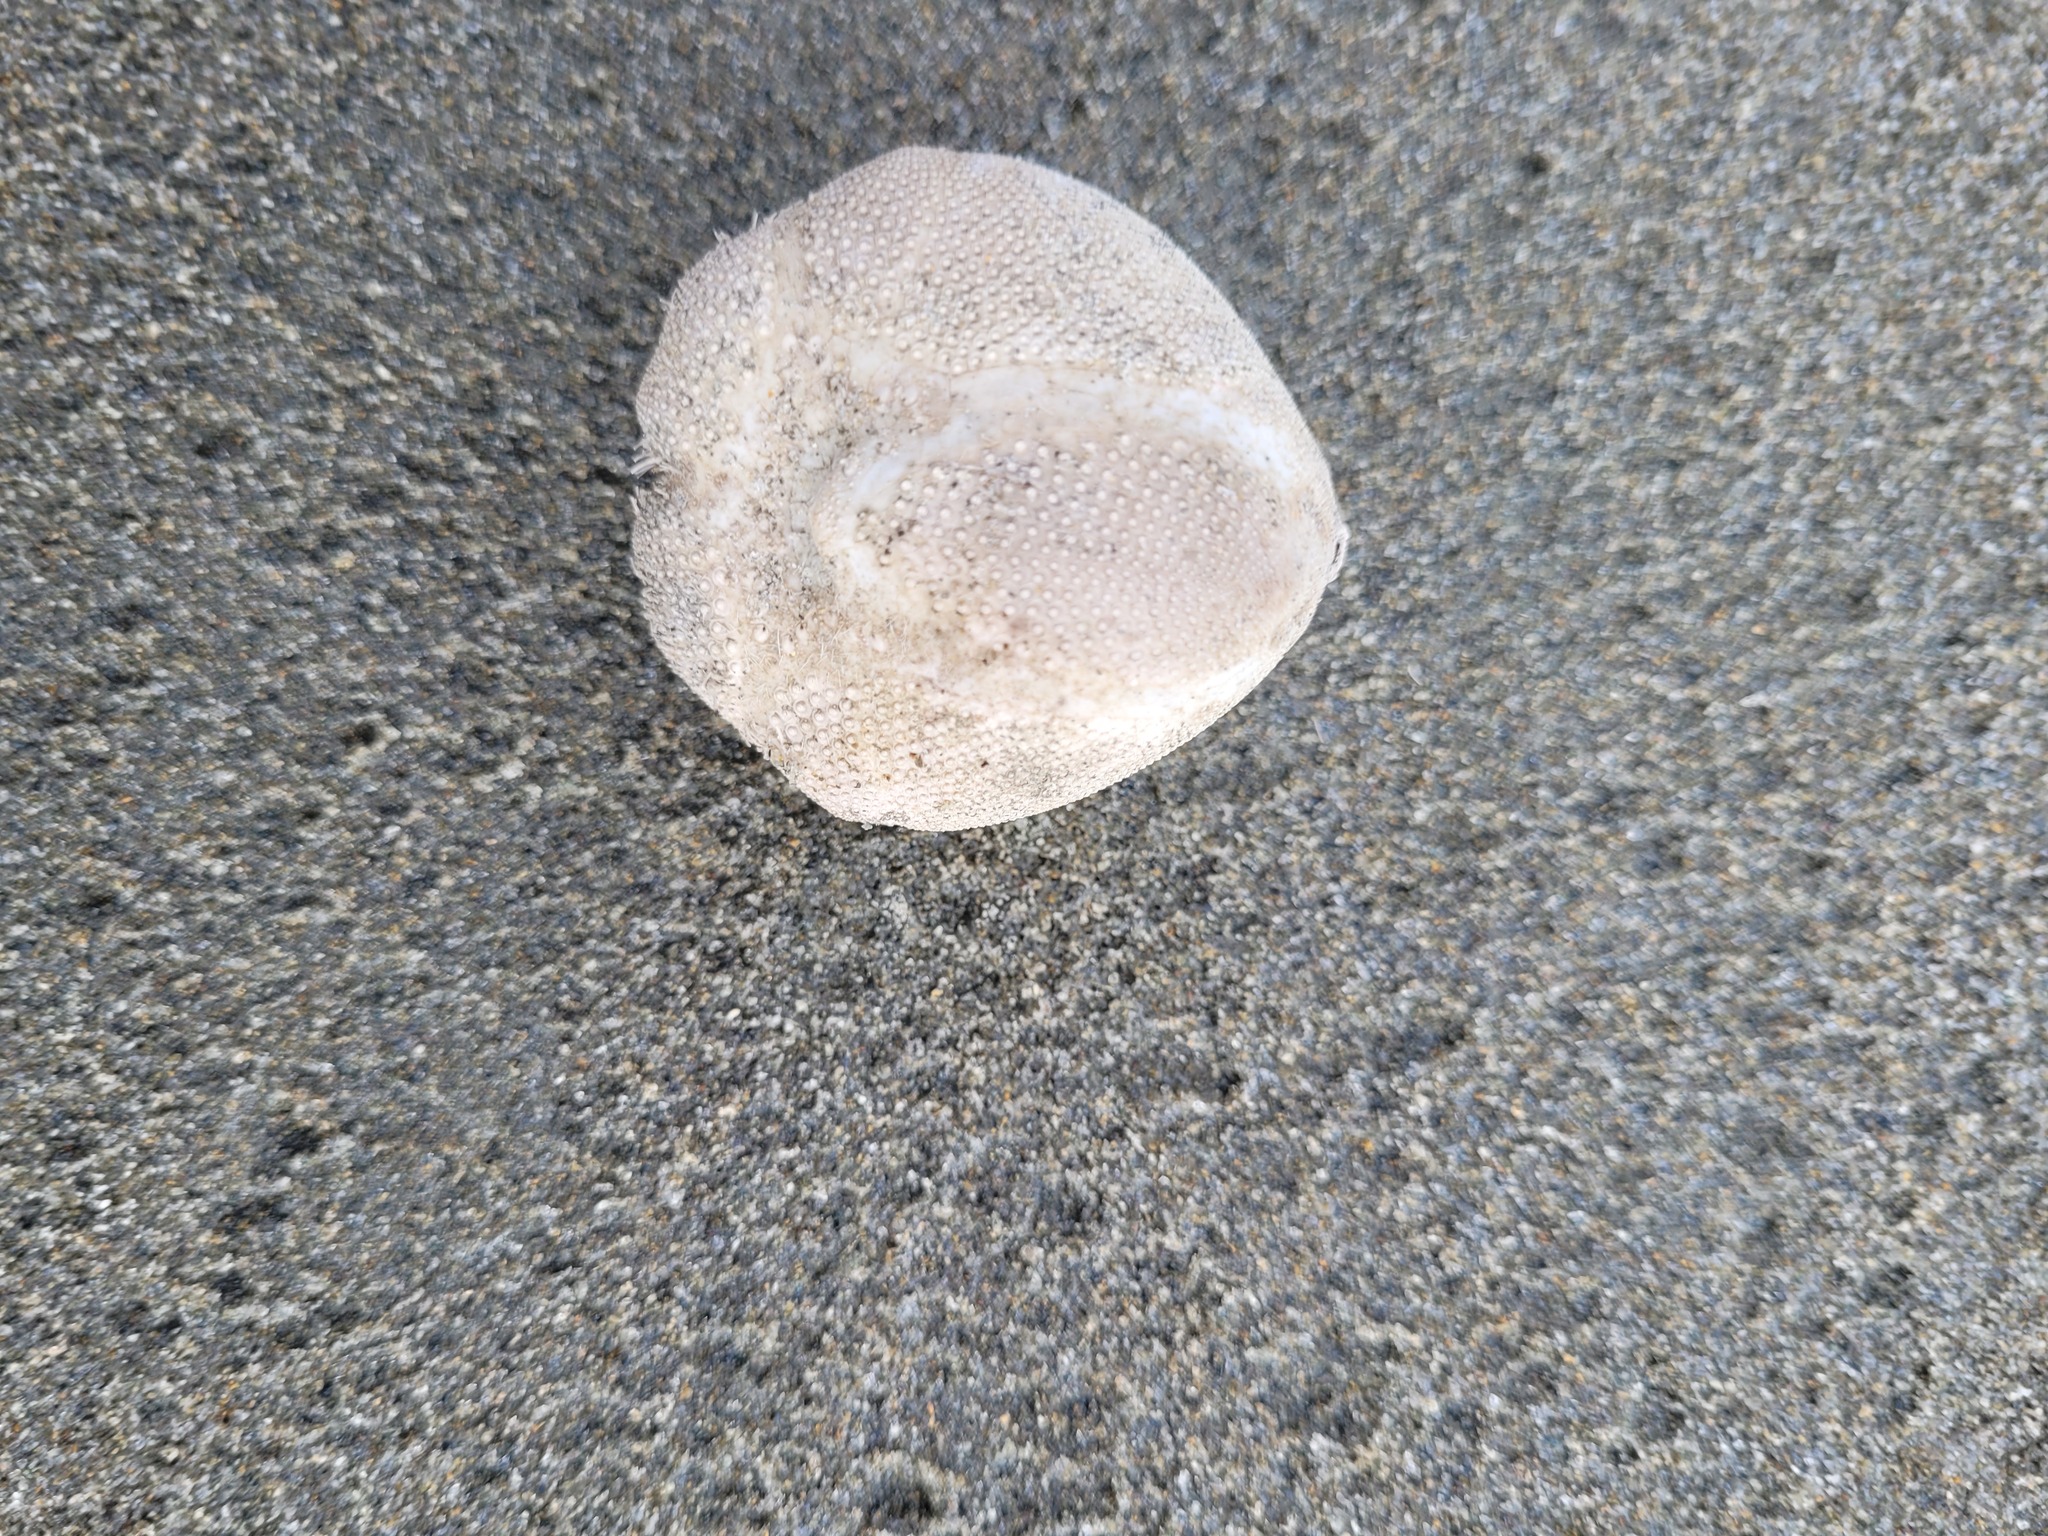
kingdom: Animalia
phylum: Echinodermata
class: Echinoidea
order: Spatangoida
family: Loveniidae
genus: Echinocardium
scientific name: Echinocardium cordatum
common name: Heart-urchin
